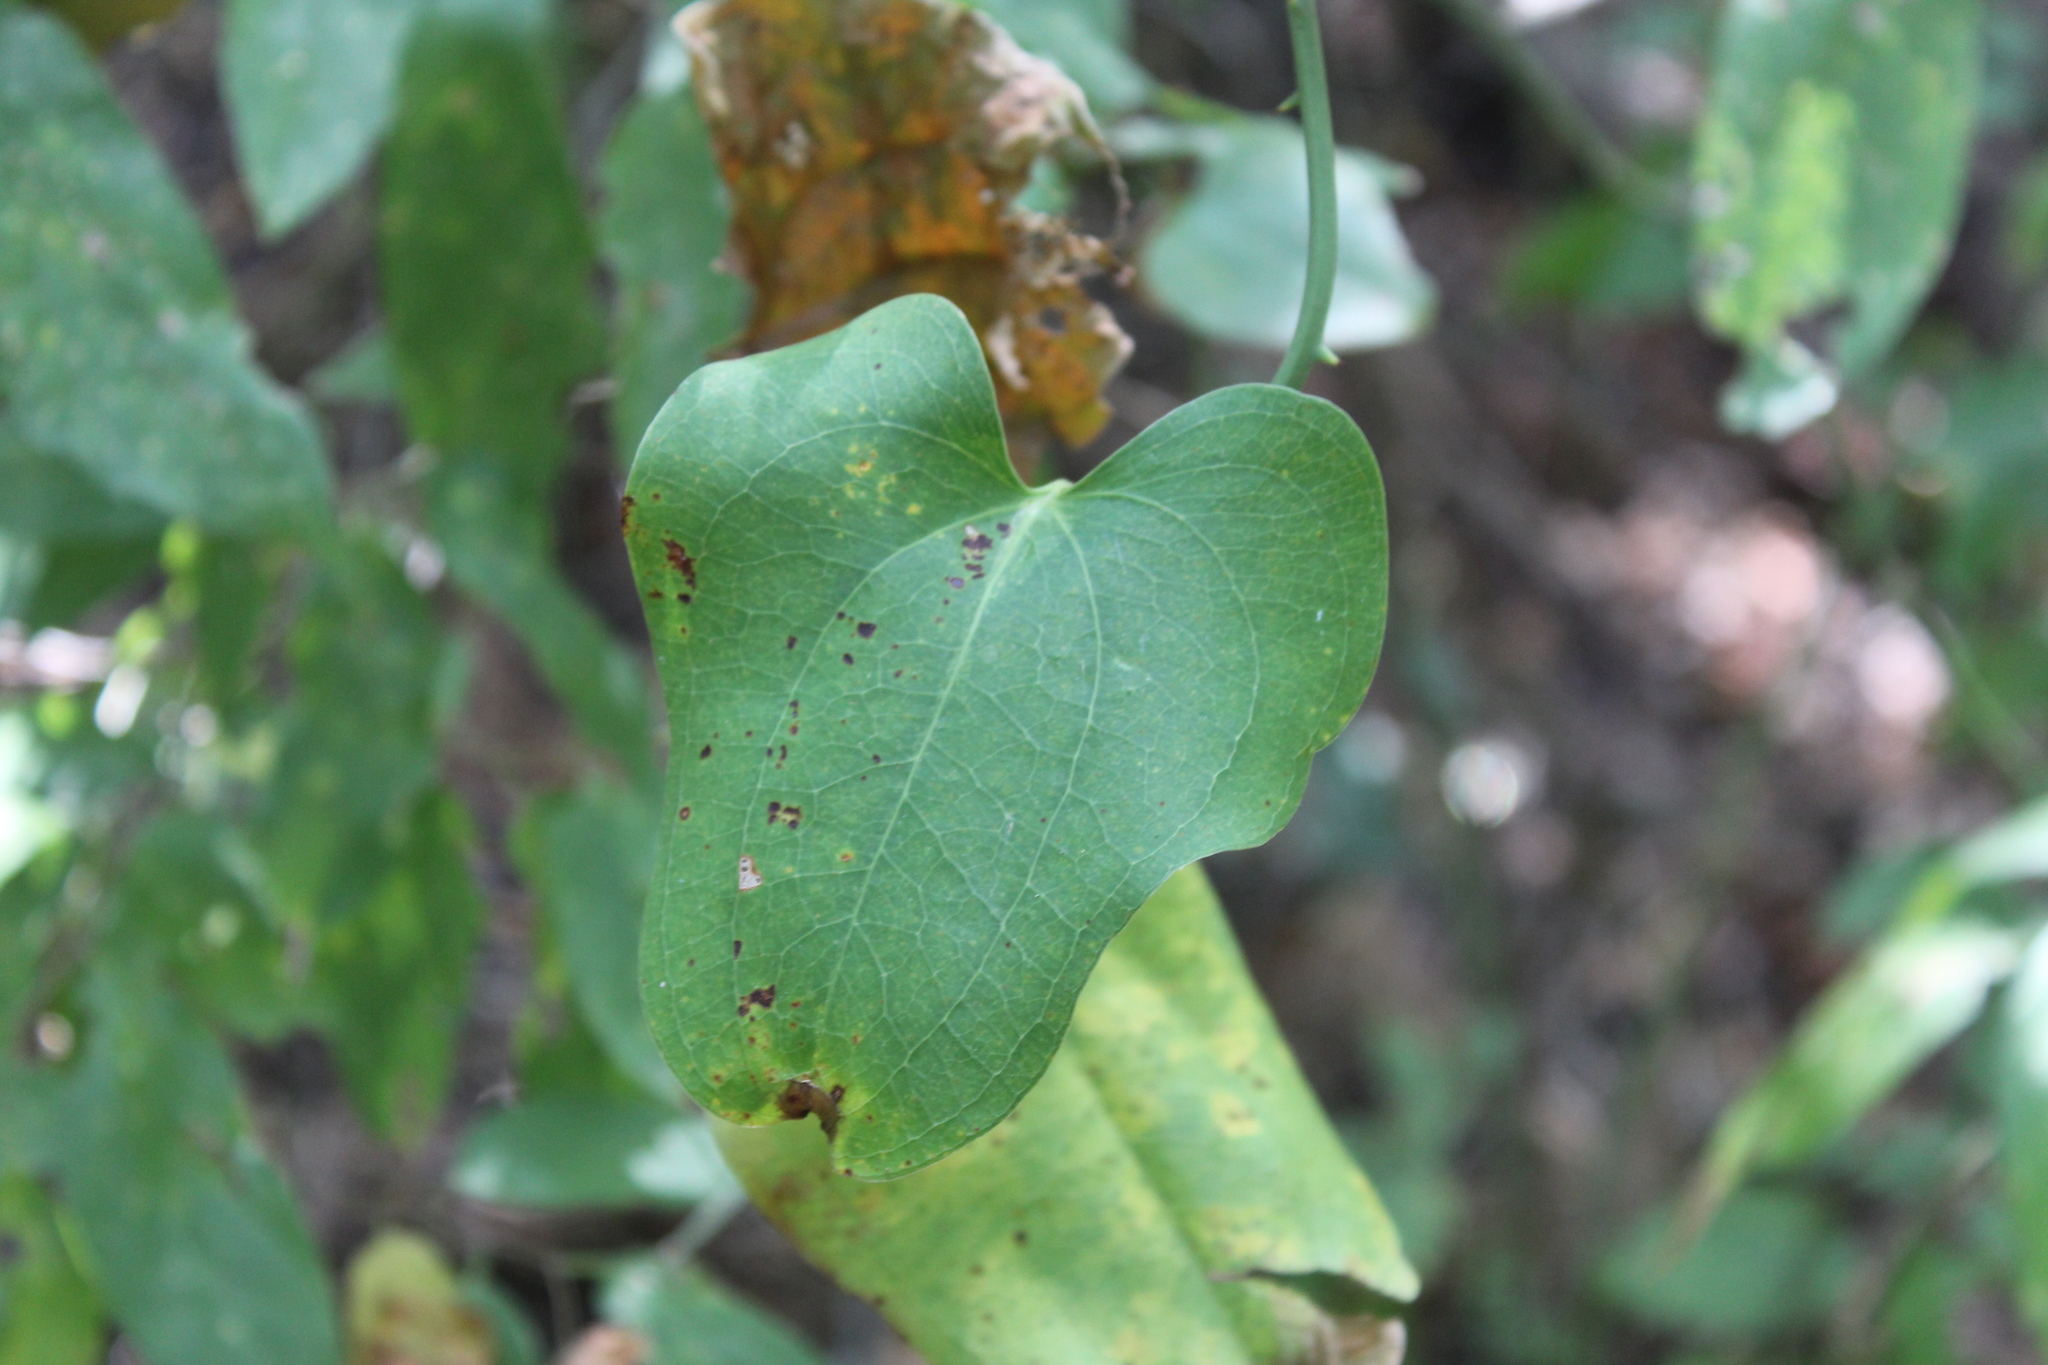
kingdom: Plantae
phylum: Tracheophyta
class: Liliopsida
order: Liliales
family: Smilacaceae
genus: Smilax
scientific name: Smilax bona-nox
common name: Catbrier
